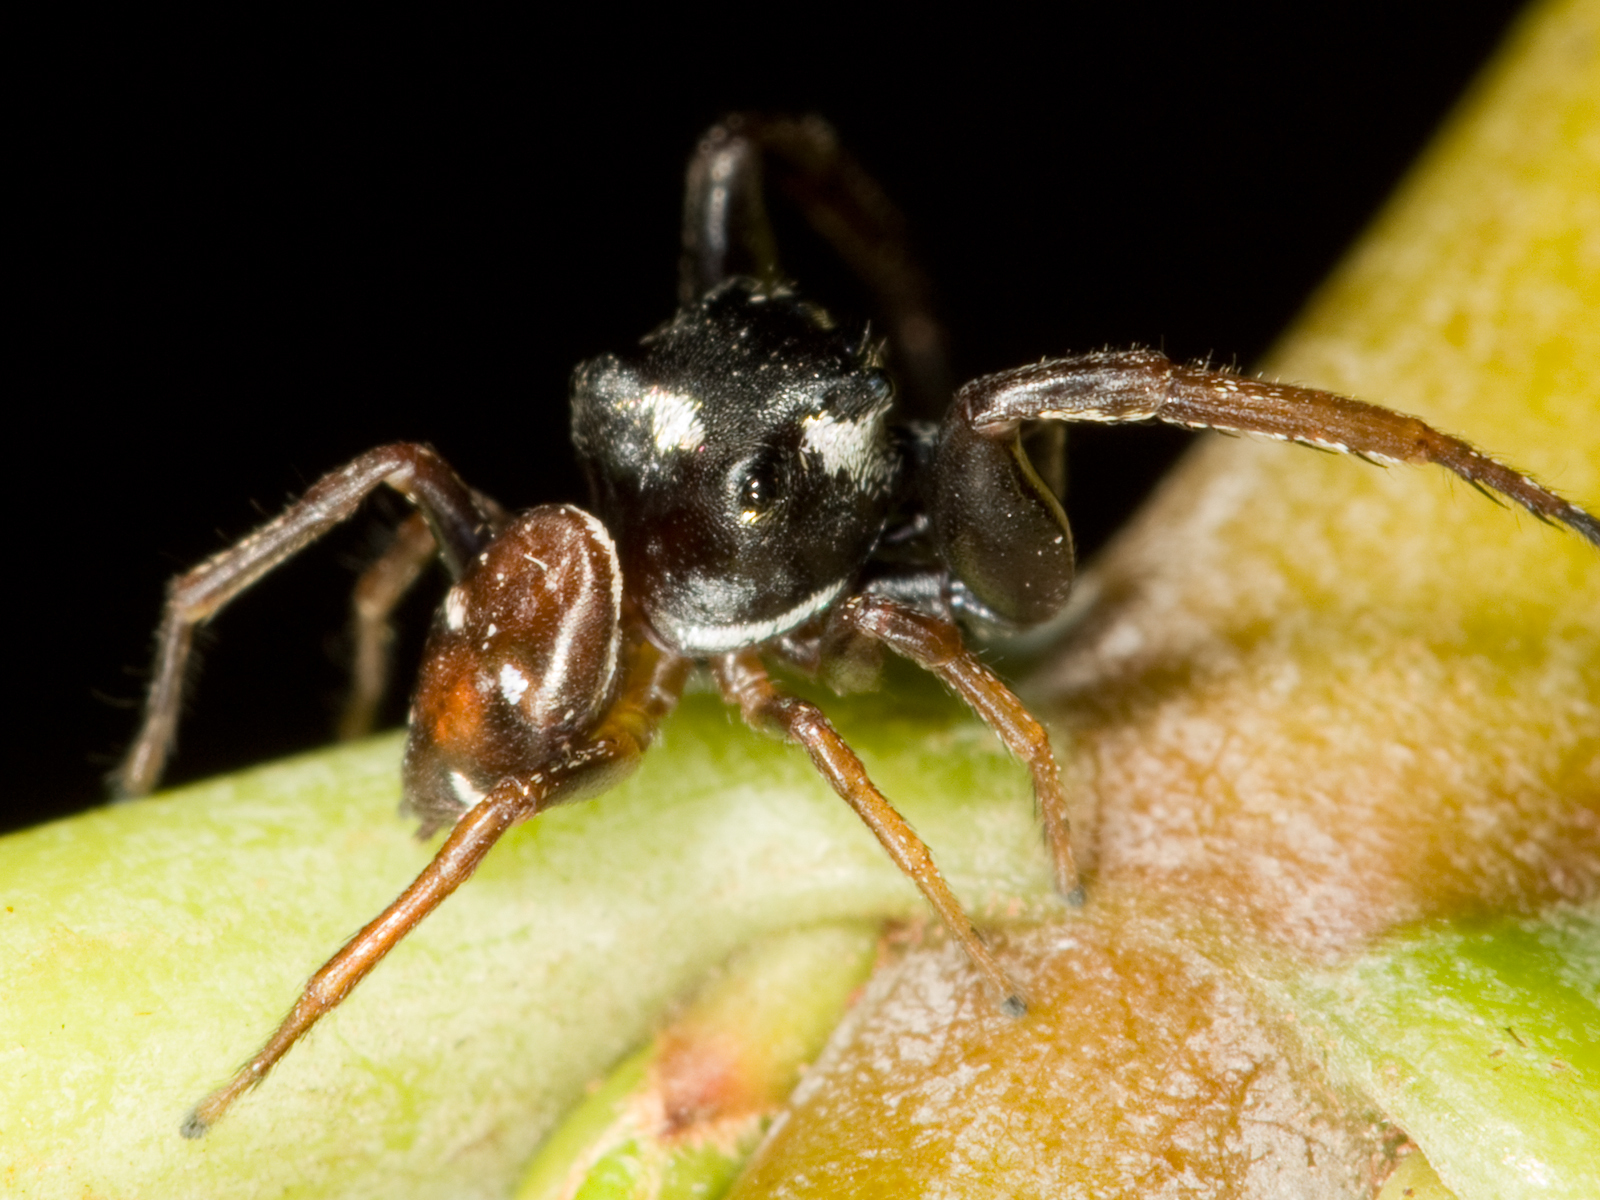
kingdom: Animalia
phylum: Arthropoda
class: Arachnida
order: Araneae
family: Salticidae
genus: Zygoballus
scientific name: Zygoballus sexpunctatus
